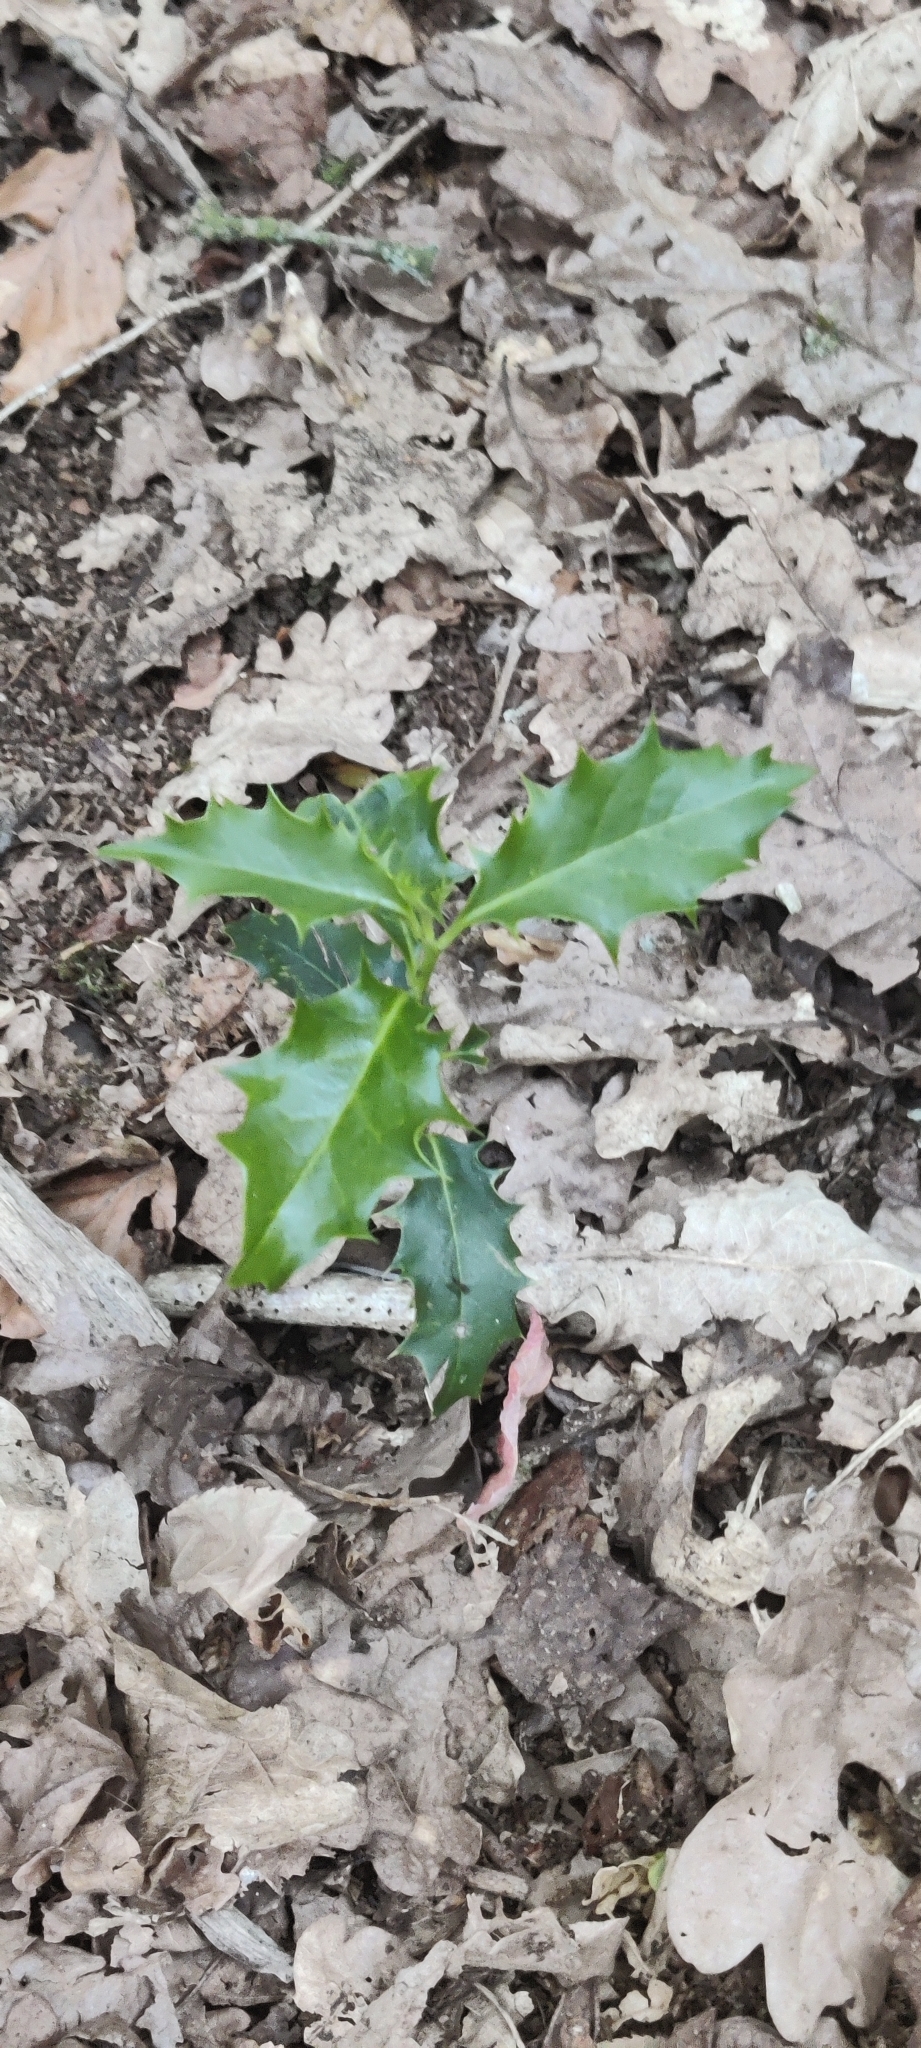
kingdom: Plantae
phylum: Tracheophyta
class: Magnoliopsida
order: Aquifoliales
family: Aquifoliaceae
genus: Ilex
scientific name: Ilex aquifolium
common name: English holly
